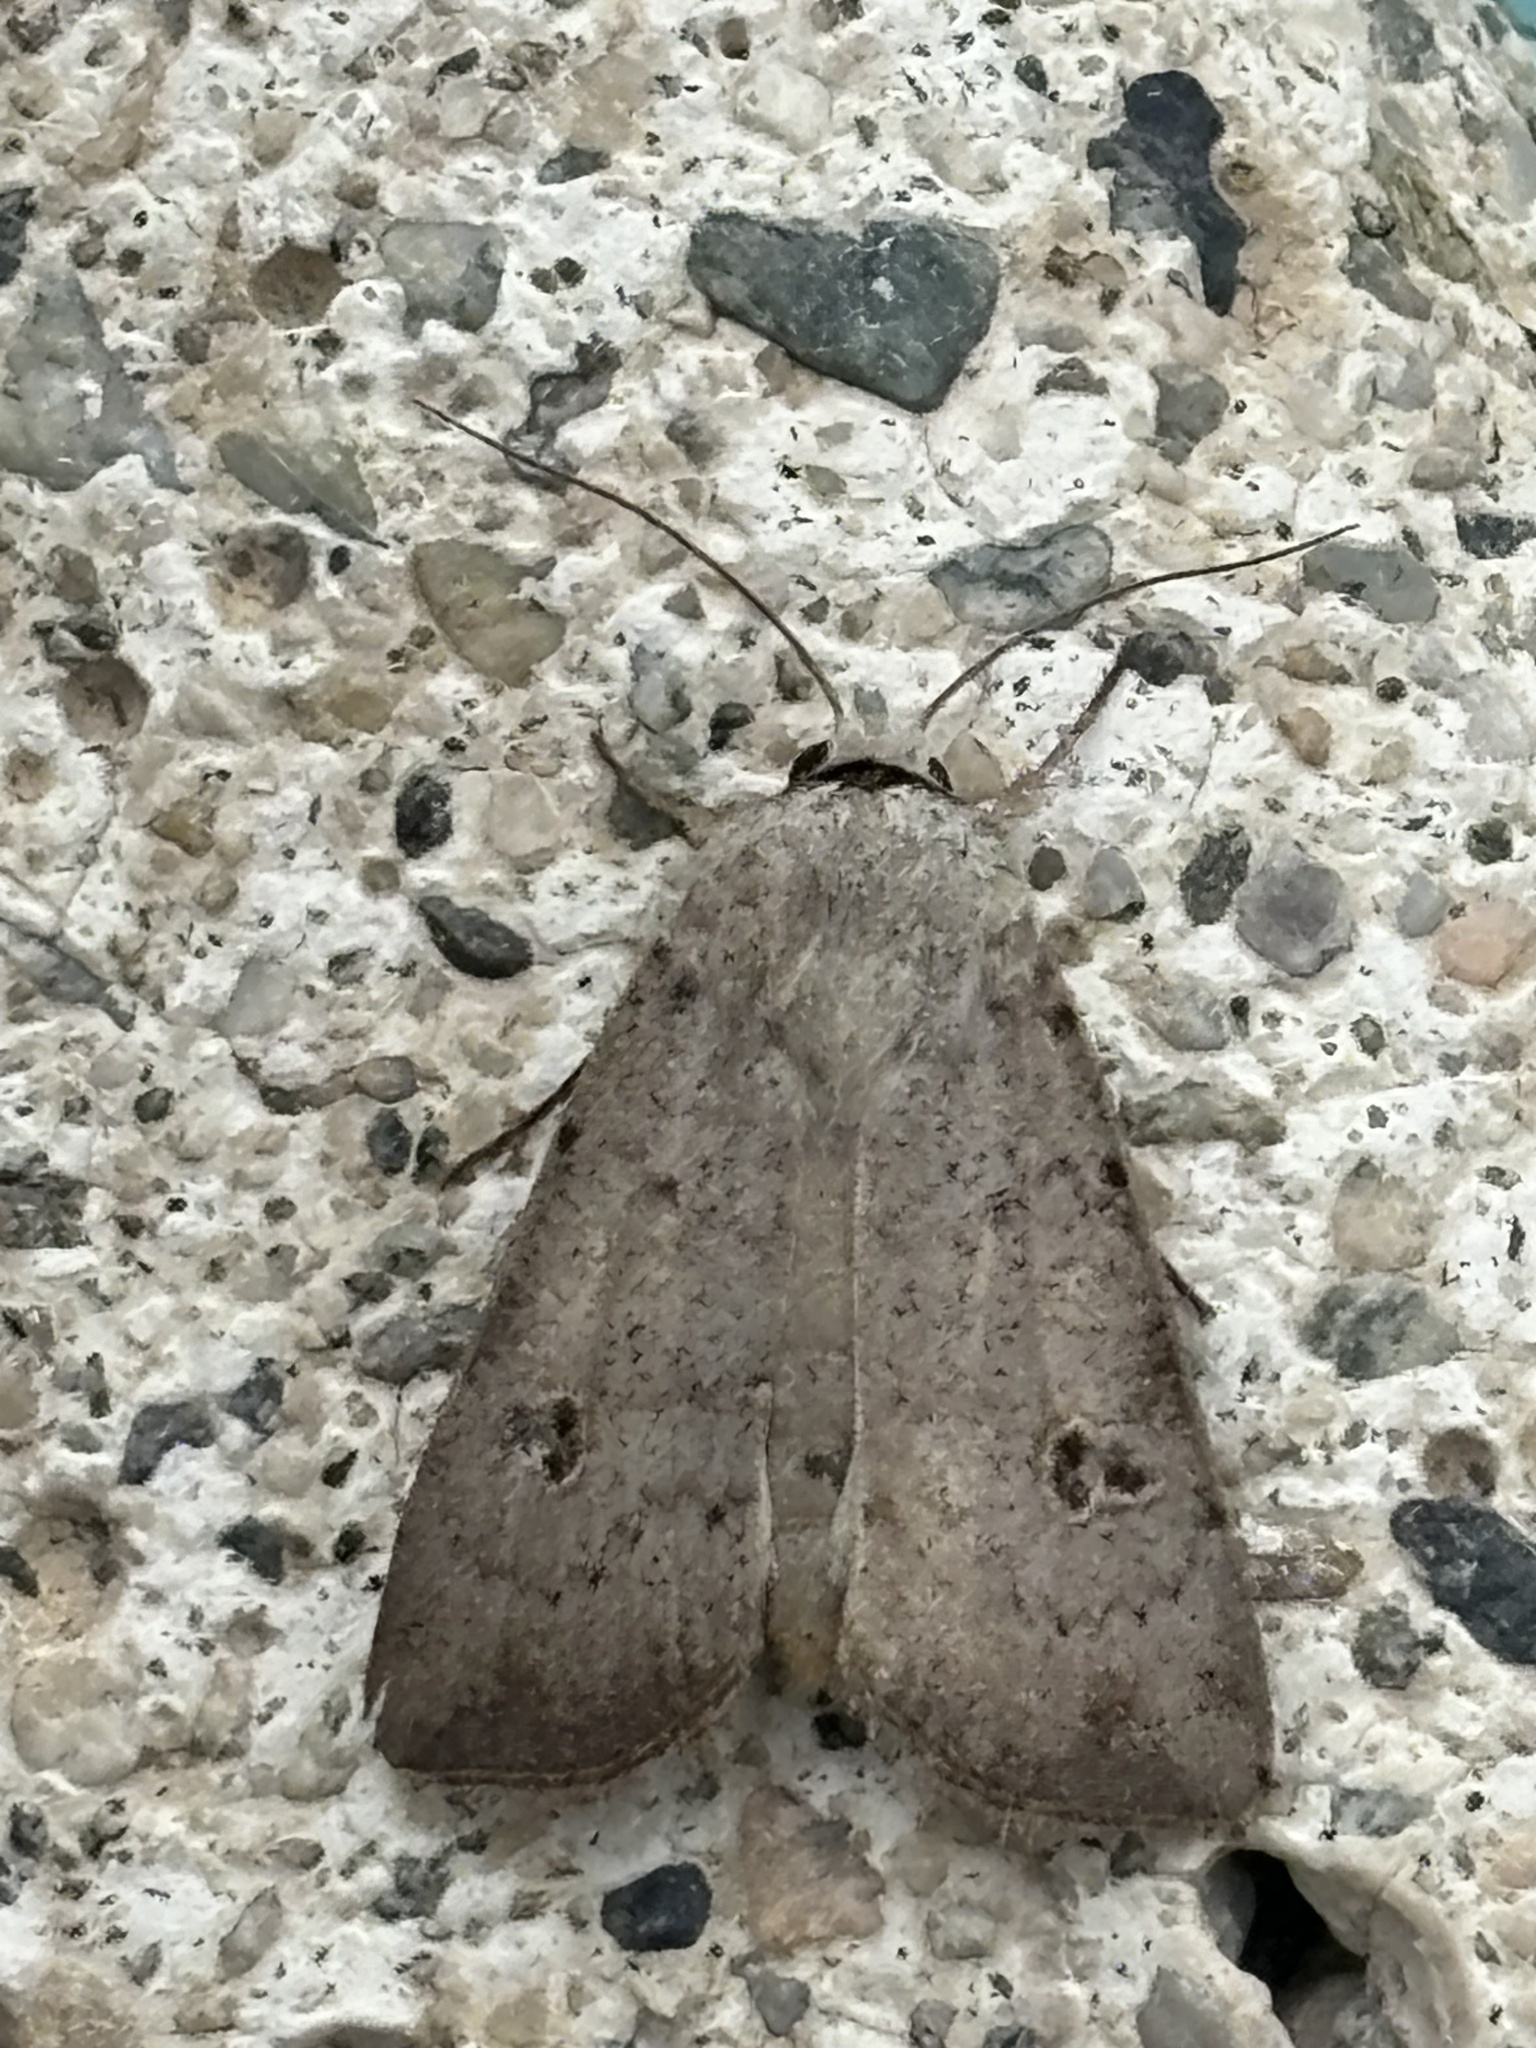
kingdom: Animalia
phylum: Arthropoda
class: Insecta
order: Lepidoptera
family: Noctuidae
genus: Anicla
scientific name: Anicla infecta
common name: Green cutworm
